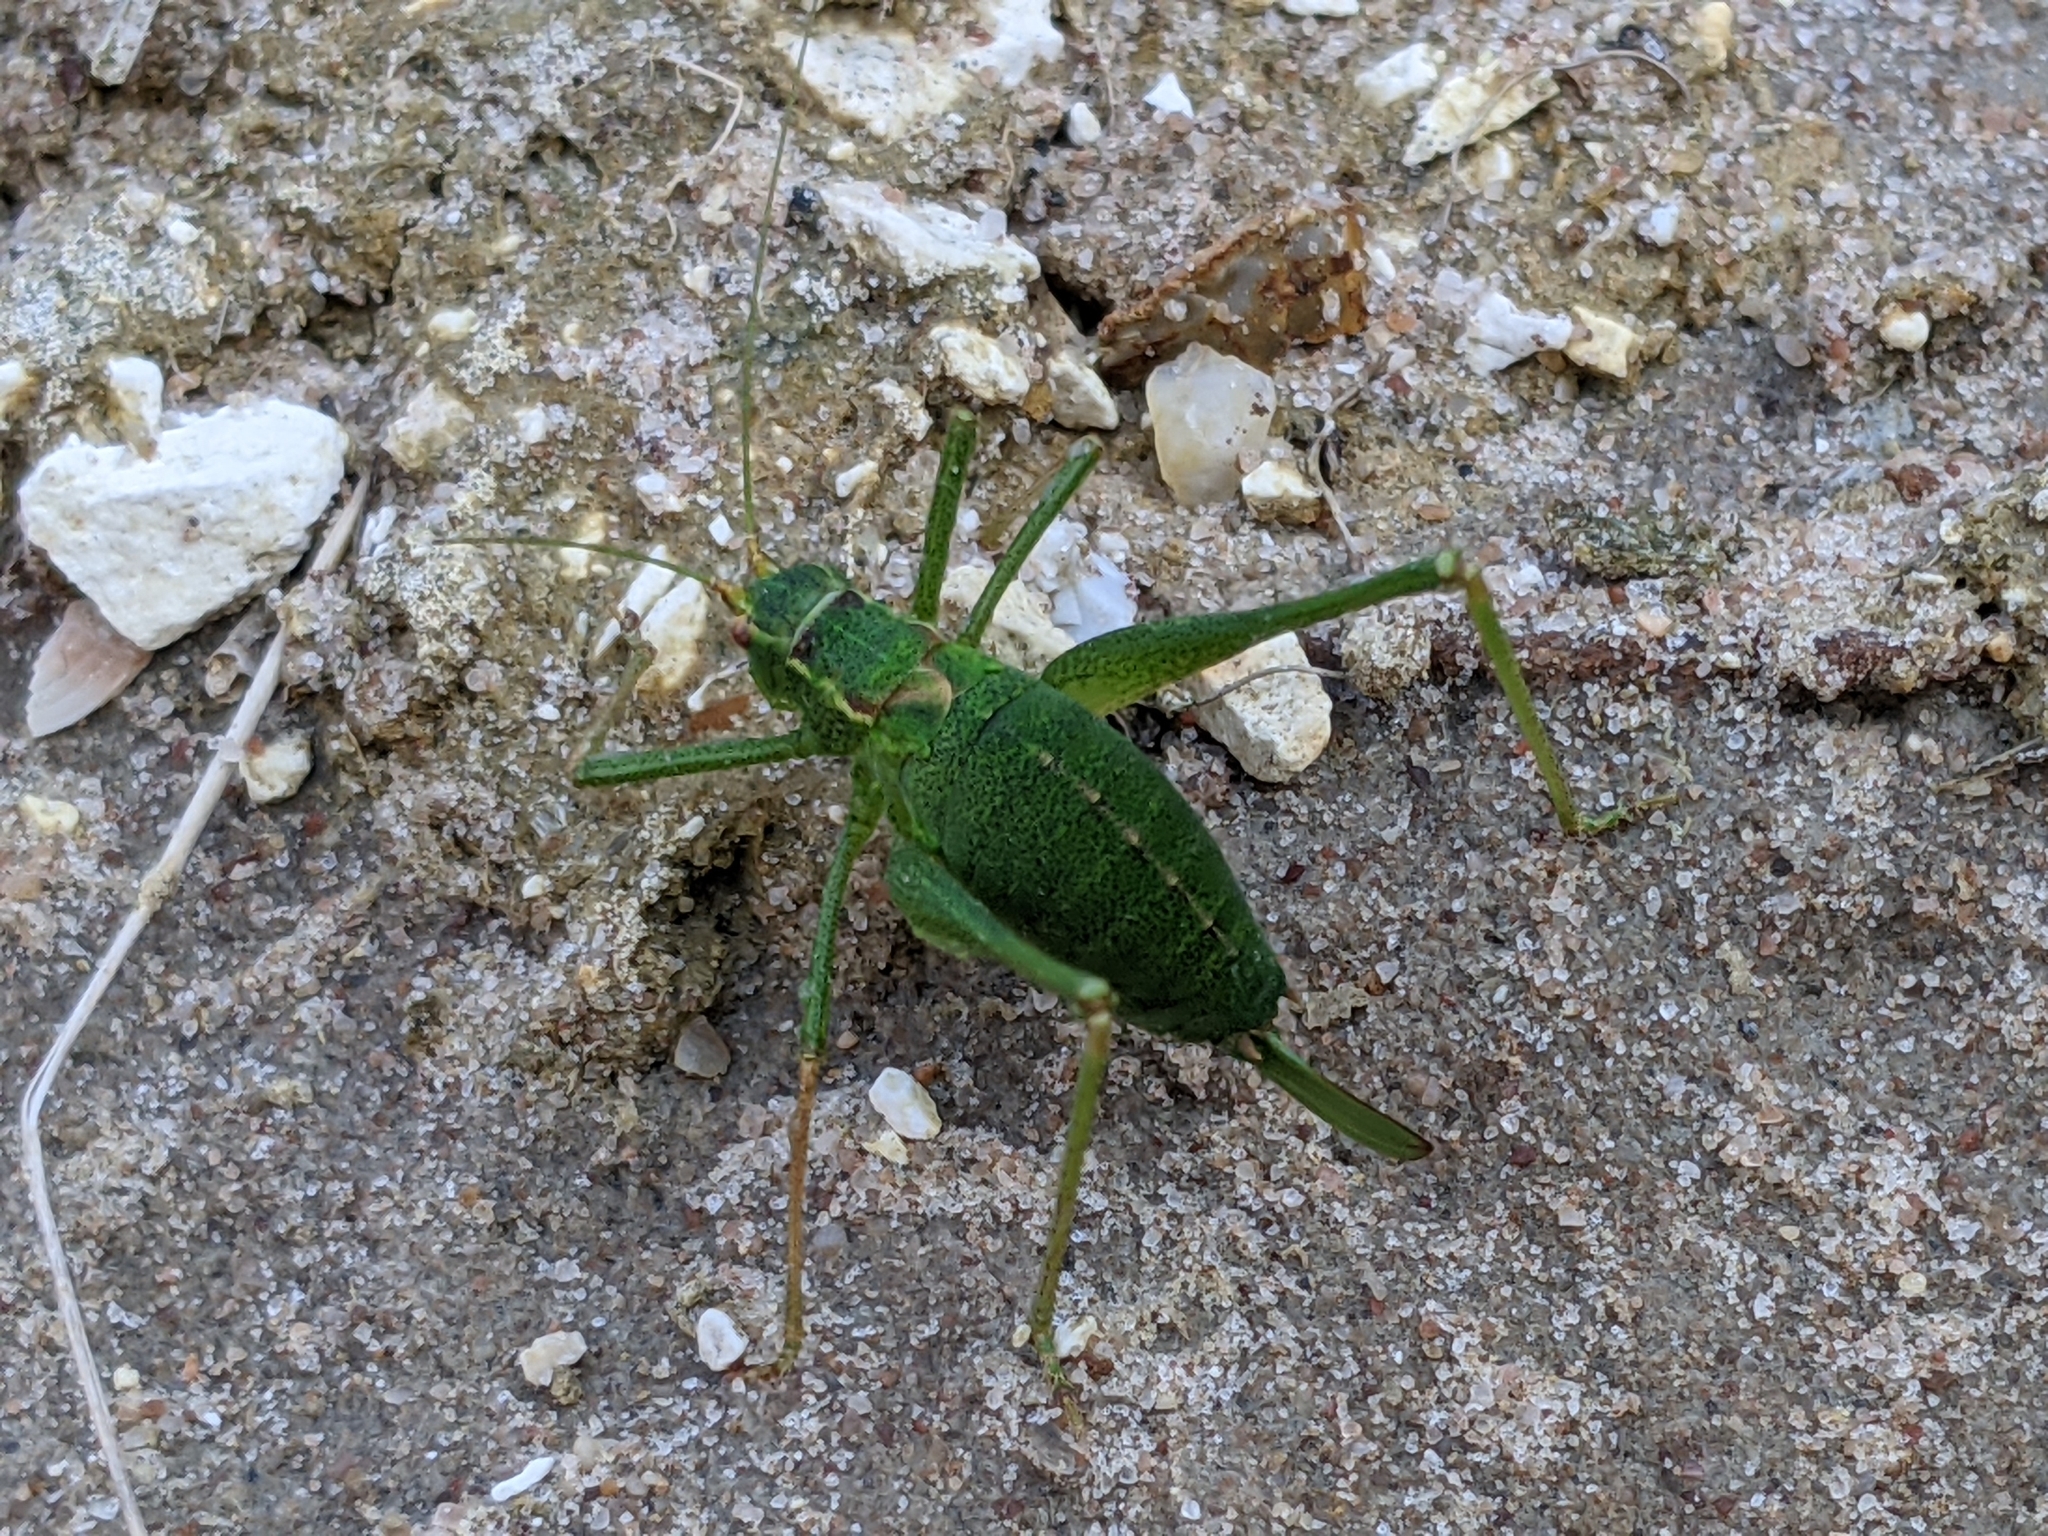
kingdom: Animalia
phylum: Arthropoda
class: Insecta
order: Orthoptera
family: Tettigoniidae
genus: Leptophyes
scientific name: Leptophyes punctatissima
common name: Speckled bush-cricket
